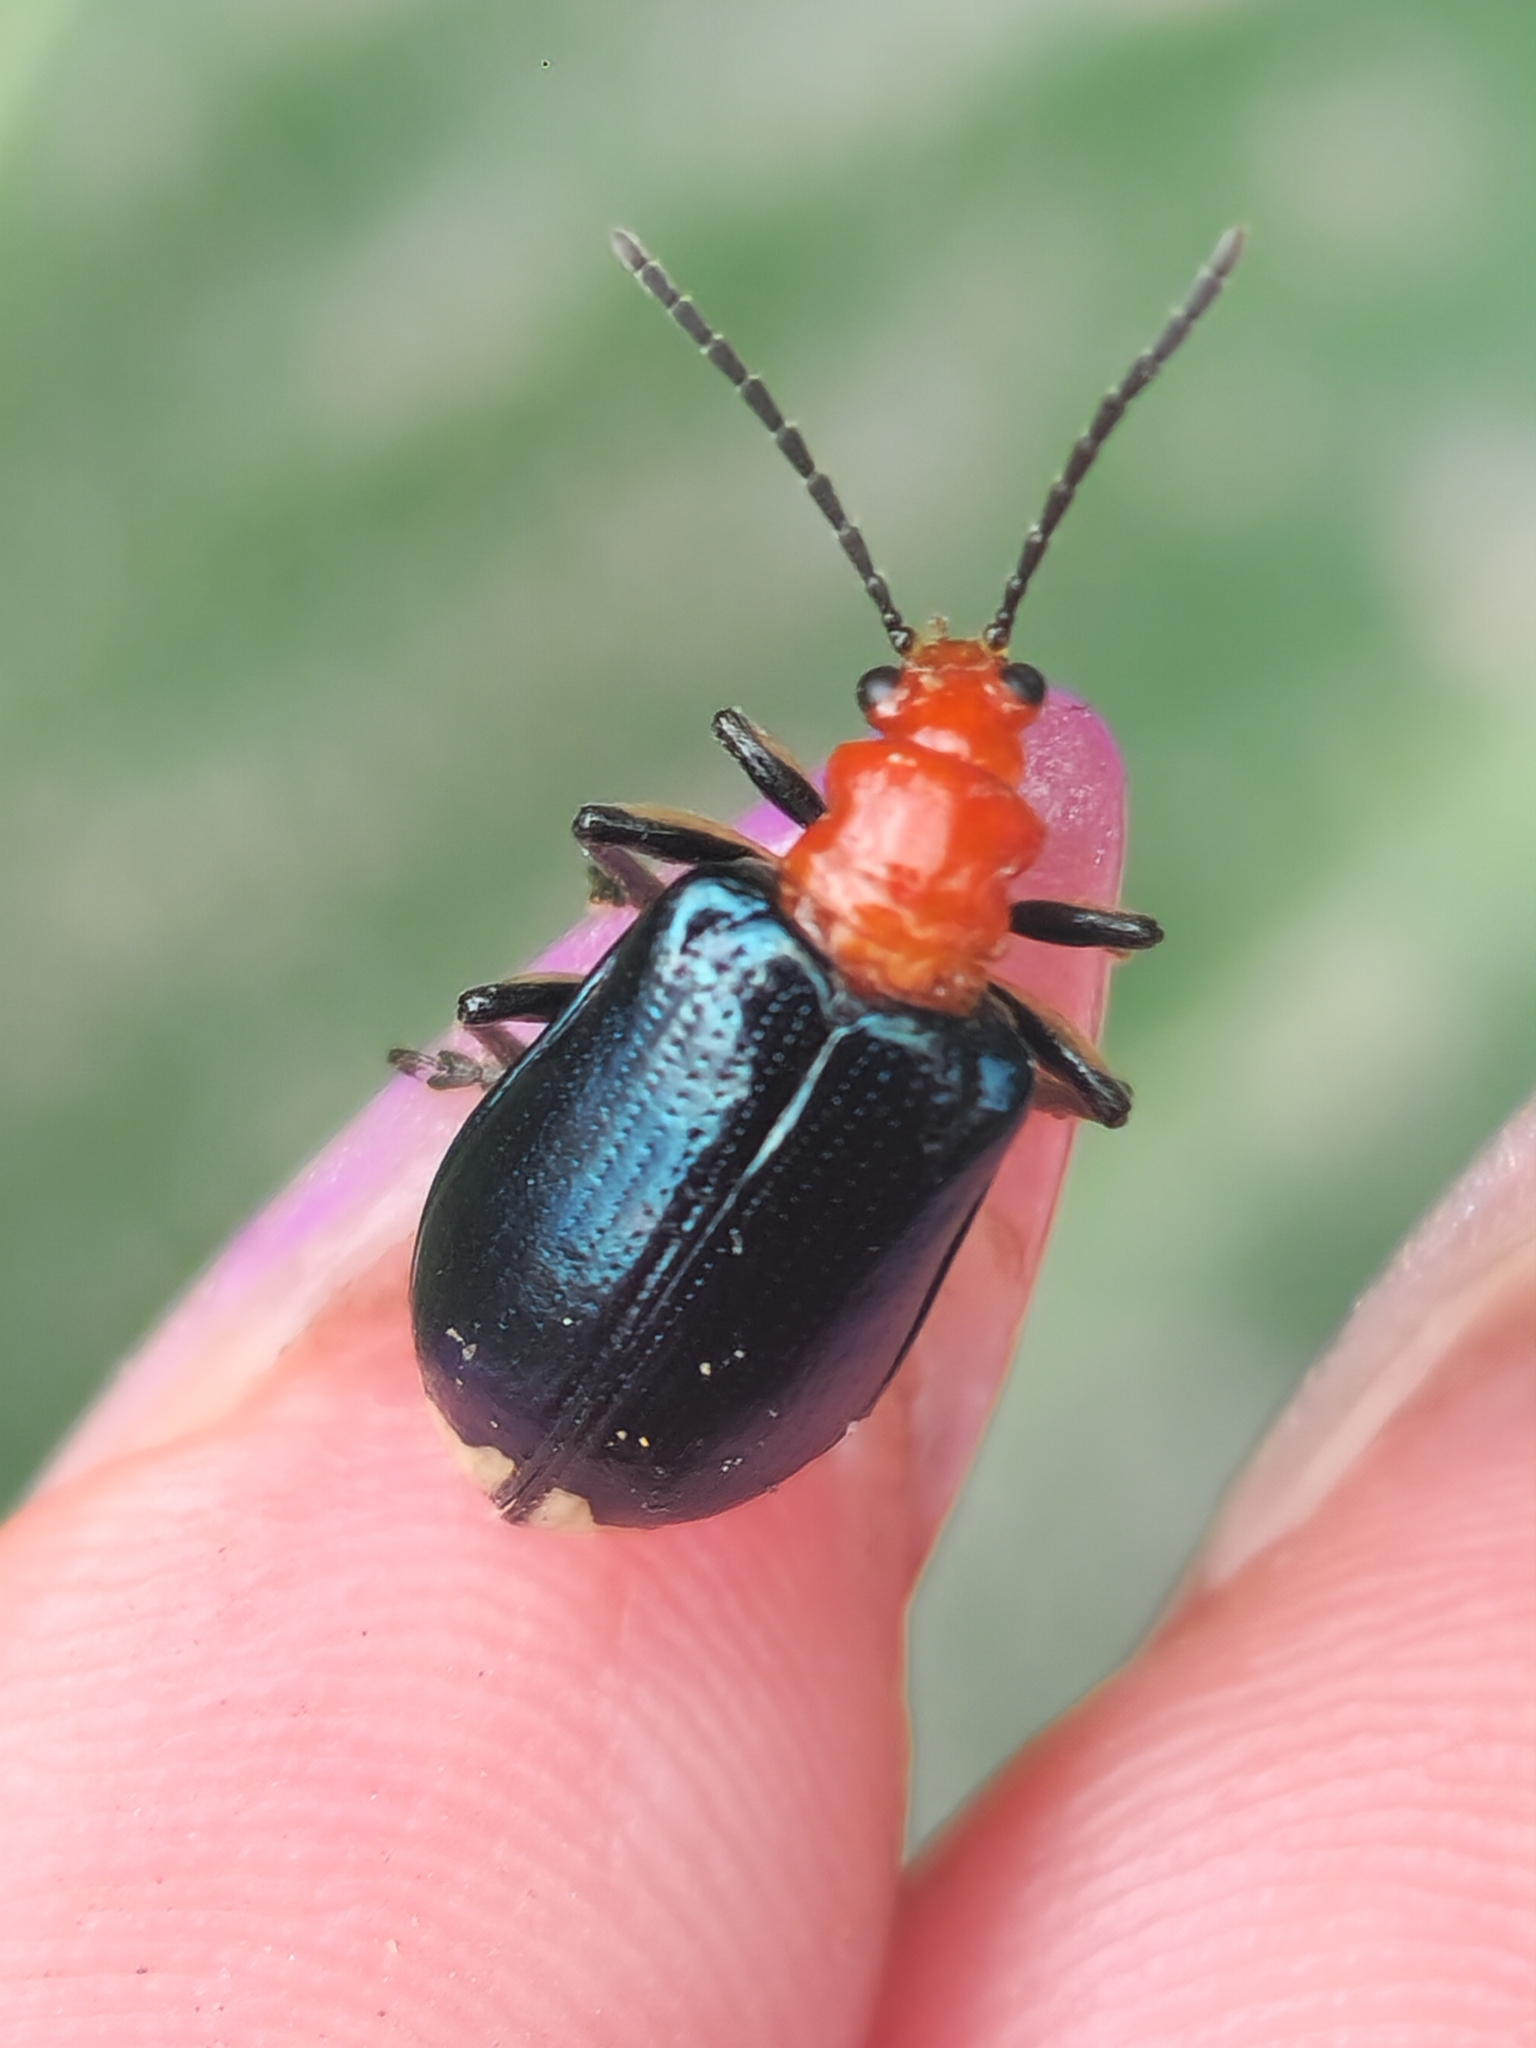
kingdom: Animalia
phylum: Arthropoda
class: Insecta
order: Coleoptera
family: Chrysomelidae
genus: Stolas
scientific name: Stolas chalybaea
